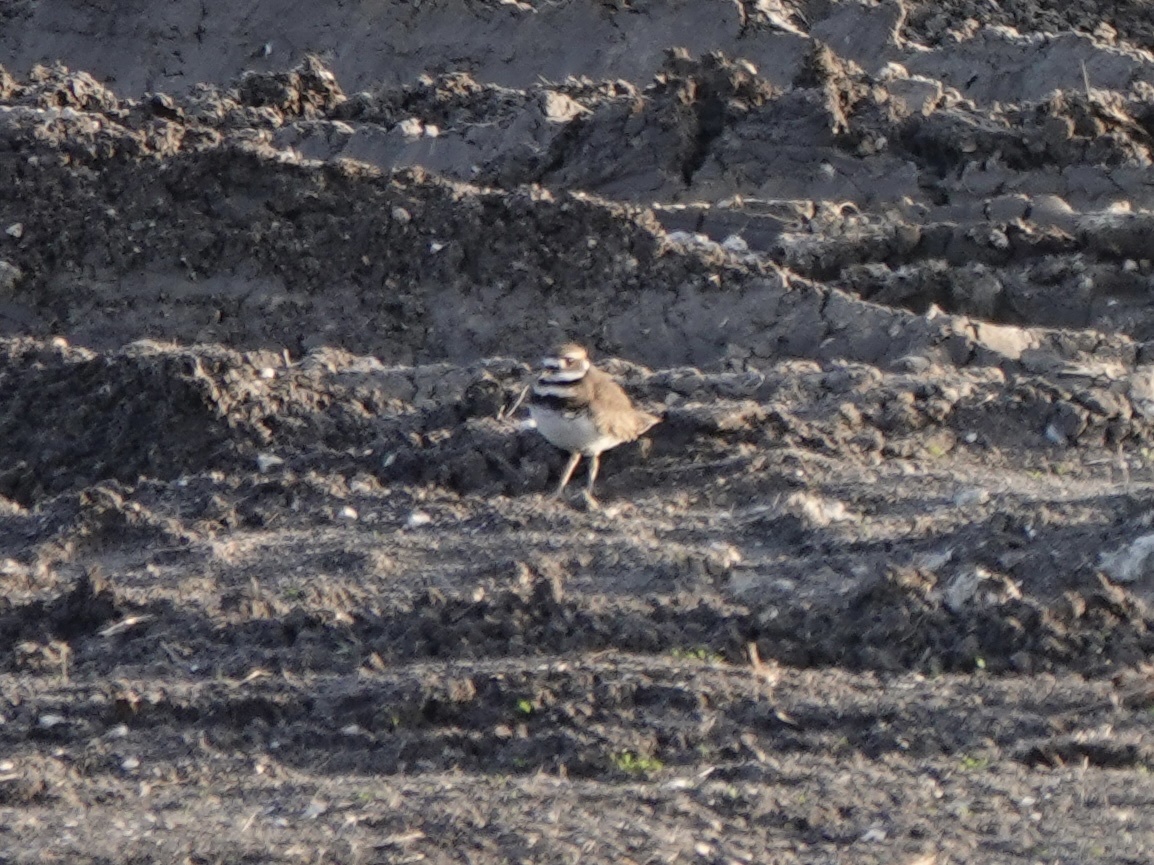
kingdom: Animalia
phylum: Chordata
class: Aves
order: Charadriiformes
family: Charadriidae
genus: Charadrius
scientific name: Charadrius vociferus
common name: Killdeer
